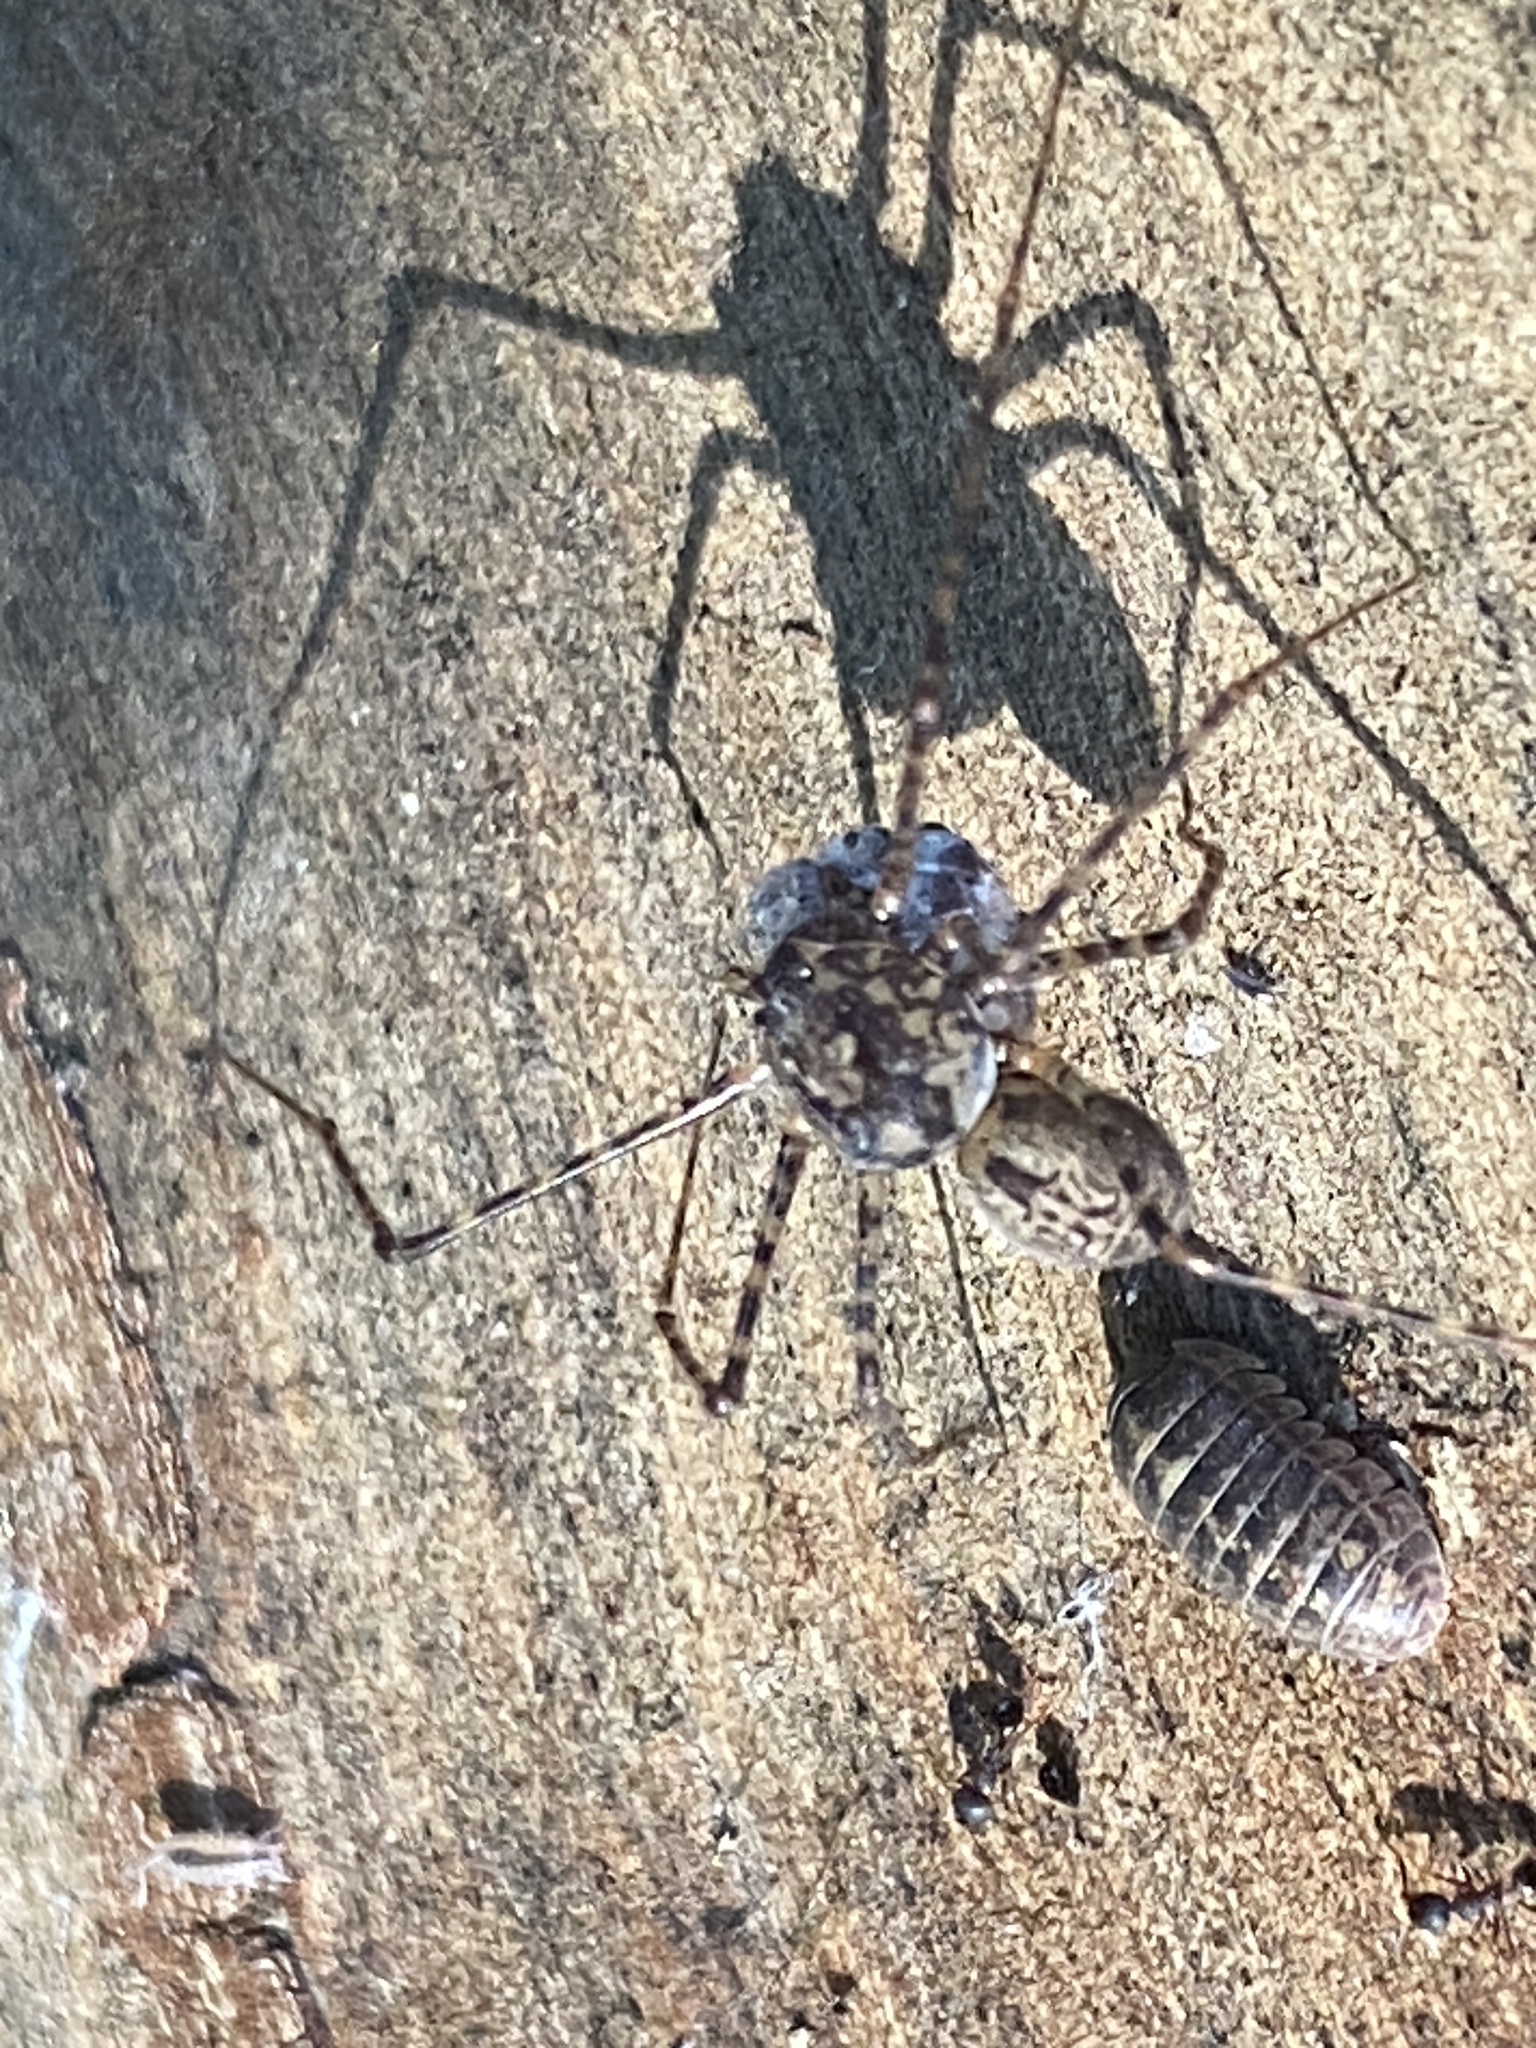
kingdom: Animalia
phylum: Arthropoda
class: Arachnida
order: Araneae
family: Scytodidae
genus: Scytodes
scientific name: Scytodes globula
